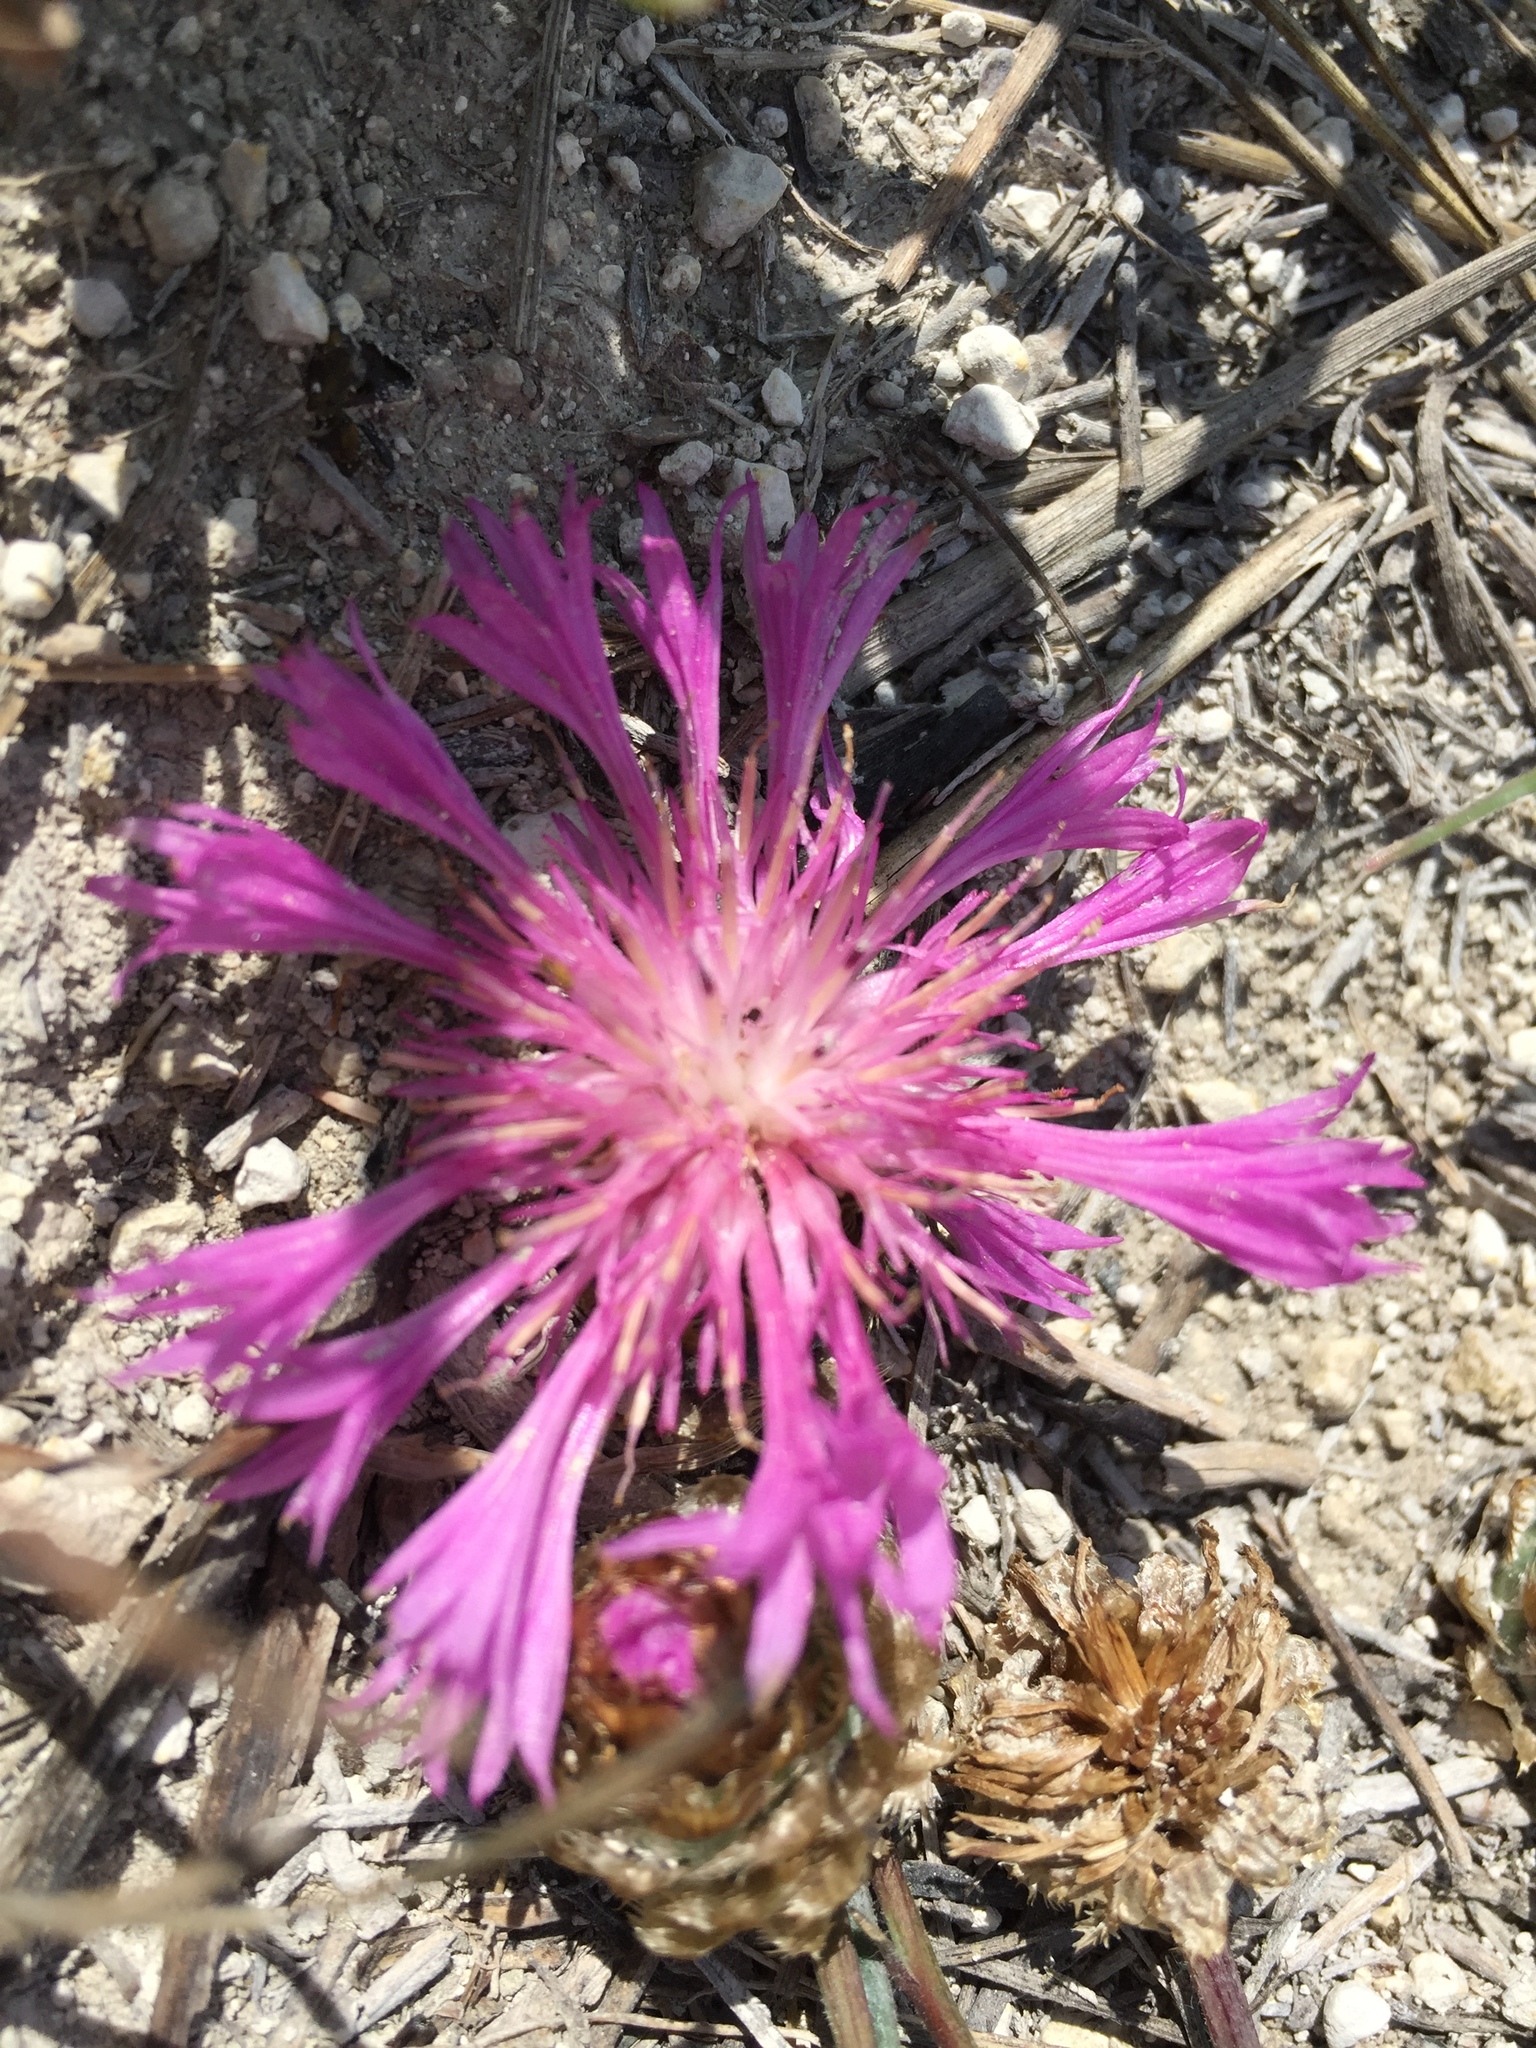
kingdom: Plantae
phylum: Tracheophyta
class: Magnoliopsida
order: Asterales
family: Asteraceae
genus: Psephellus
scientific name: Psephellus marschallianus
